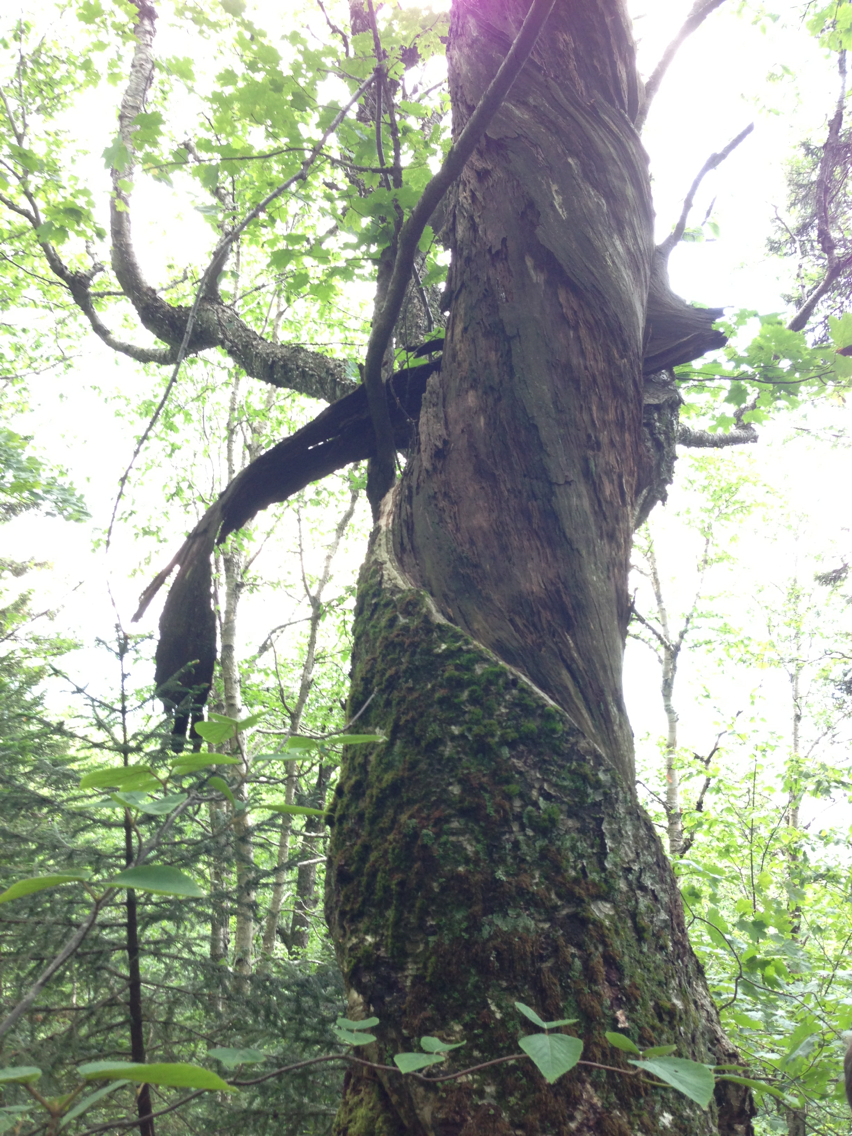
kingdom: Plantae
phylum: Tracheophyta
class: Magnoliopsida
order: Fagales
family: Betulaceae
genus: Betula
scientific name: Betula alleghaniensis
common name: Yellow birch
